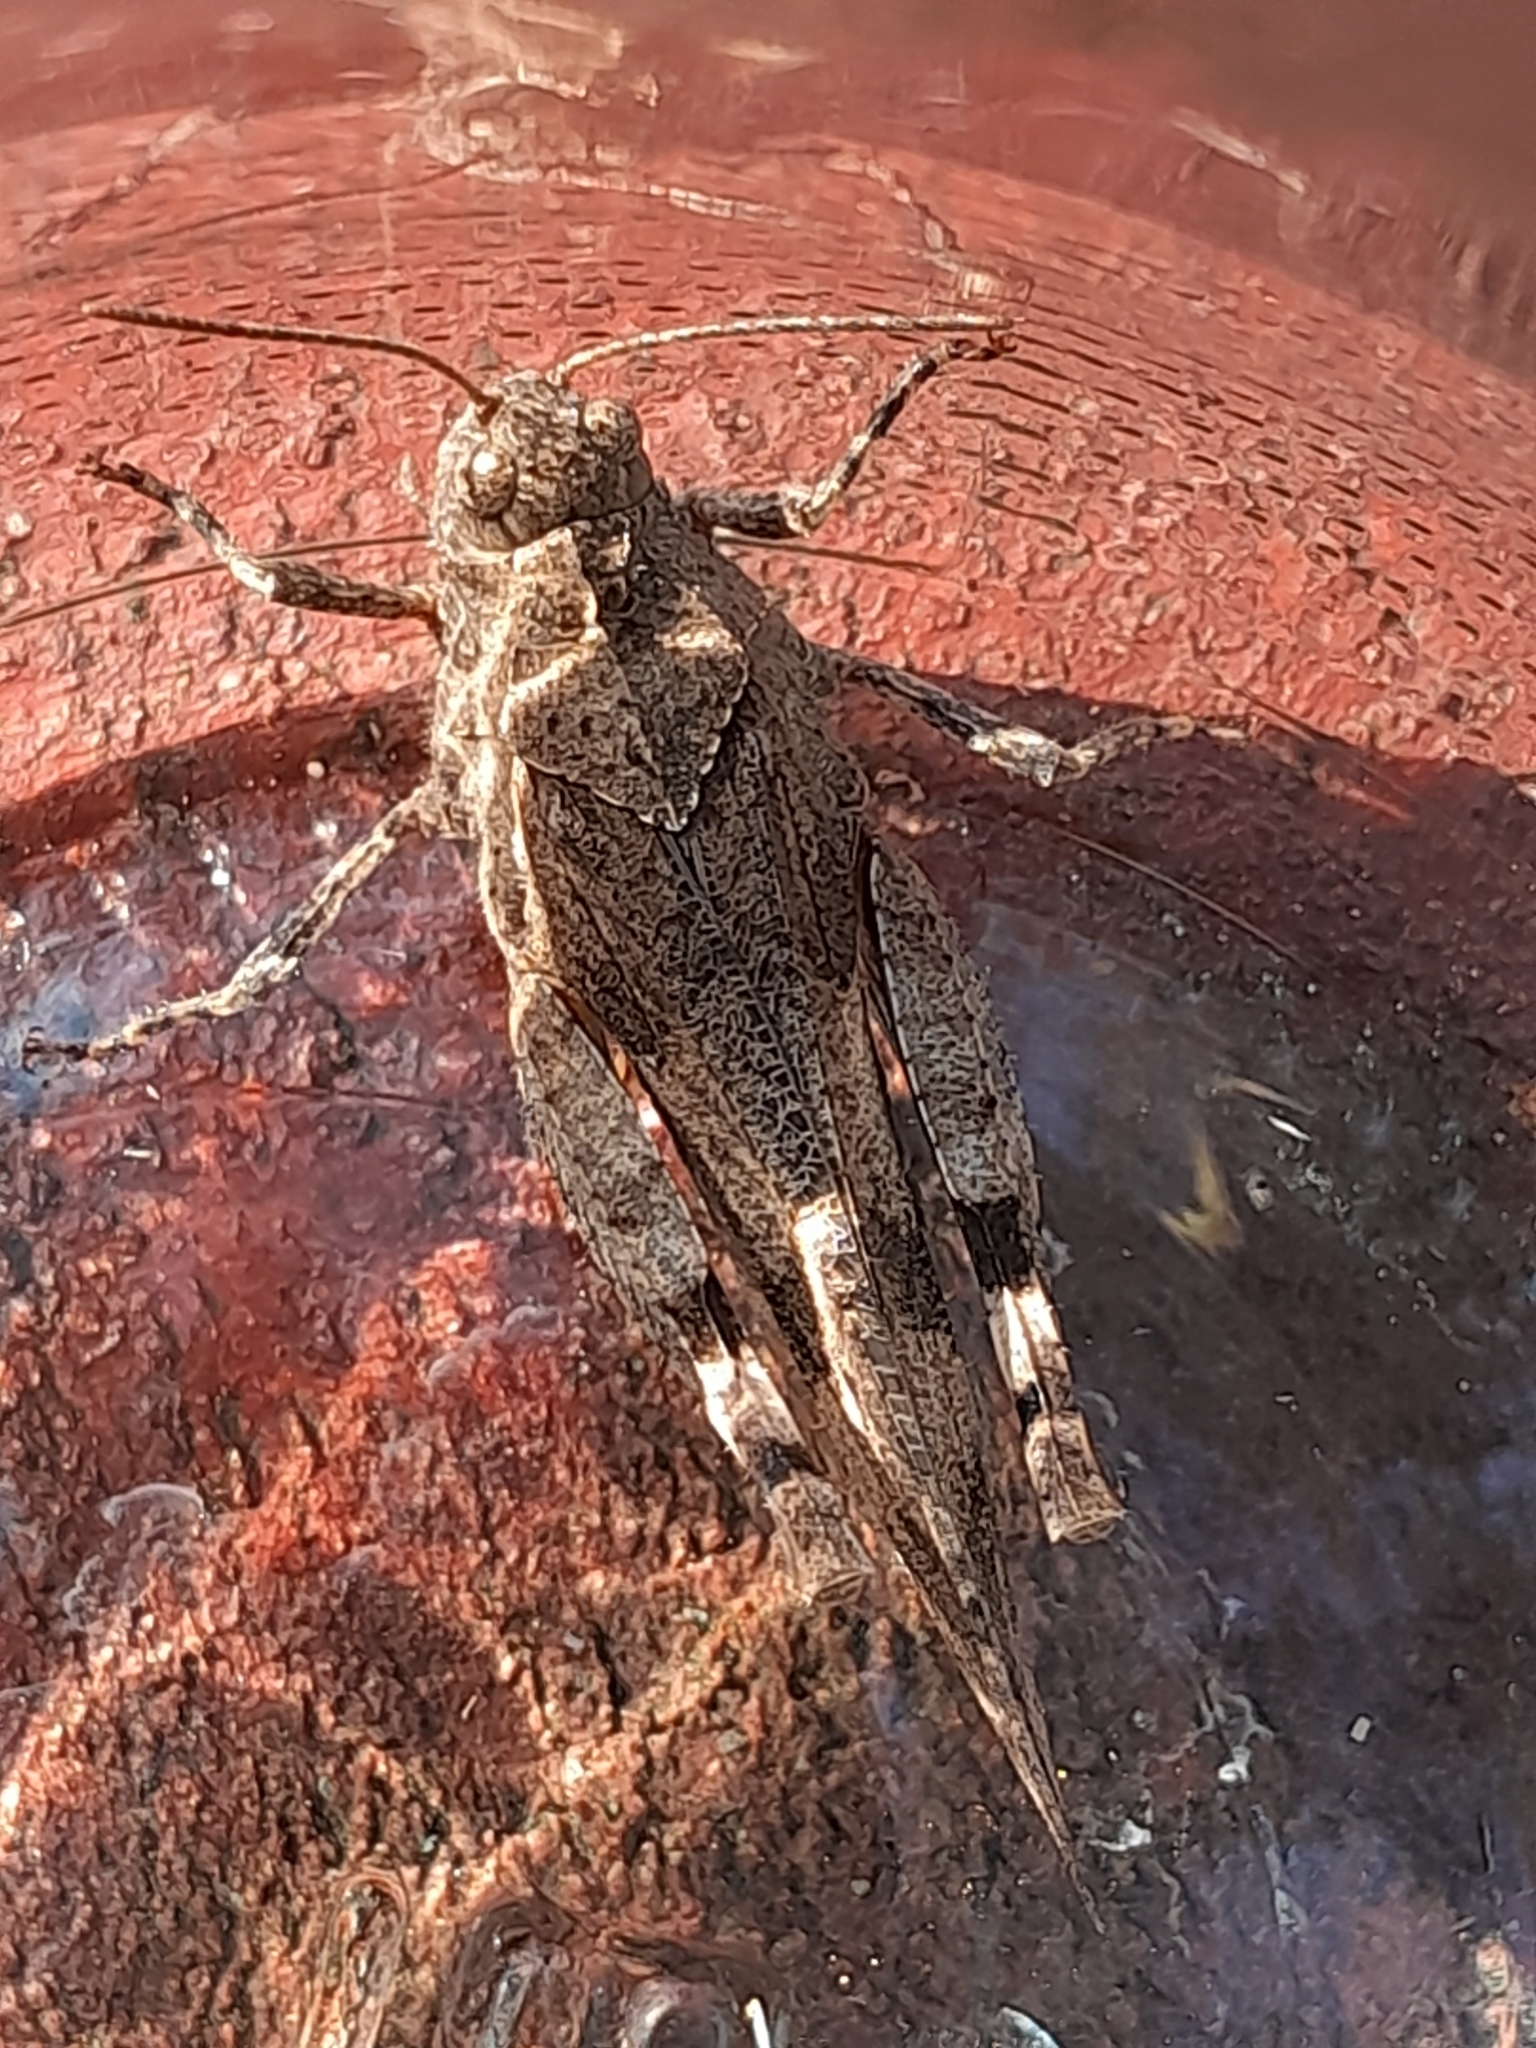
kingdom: Animalia
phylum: Arthropoda
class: Insecta
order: Orthoptera
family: Acrididae
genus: Oedipoda
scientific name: Oedipoda caerulescens
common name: Blue-winged grasshopper
